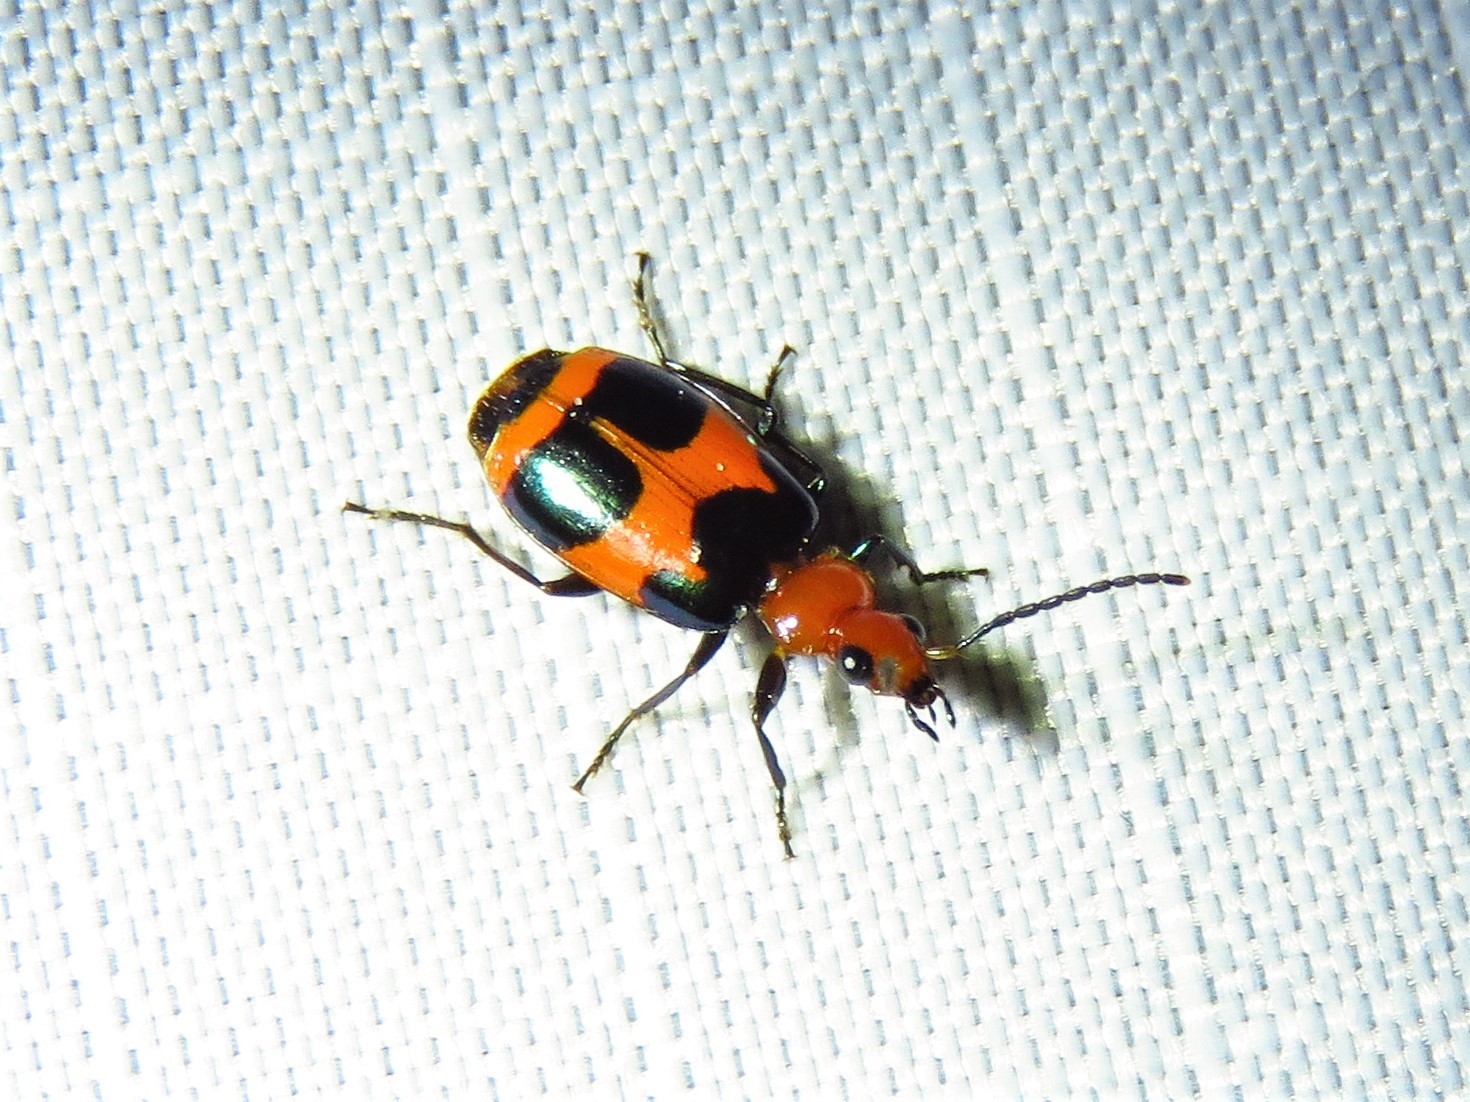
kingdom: Animalia
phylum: Arthropoda
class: Insecta
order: Coleoptera
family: Carabidae
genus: Lebia
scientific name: Lebia bitaeniata
